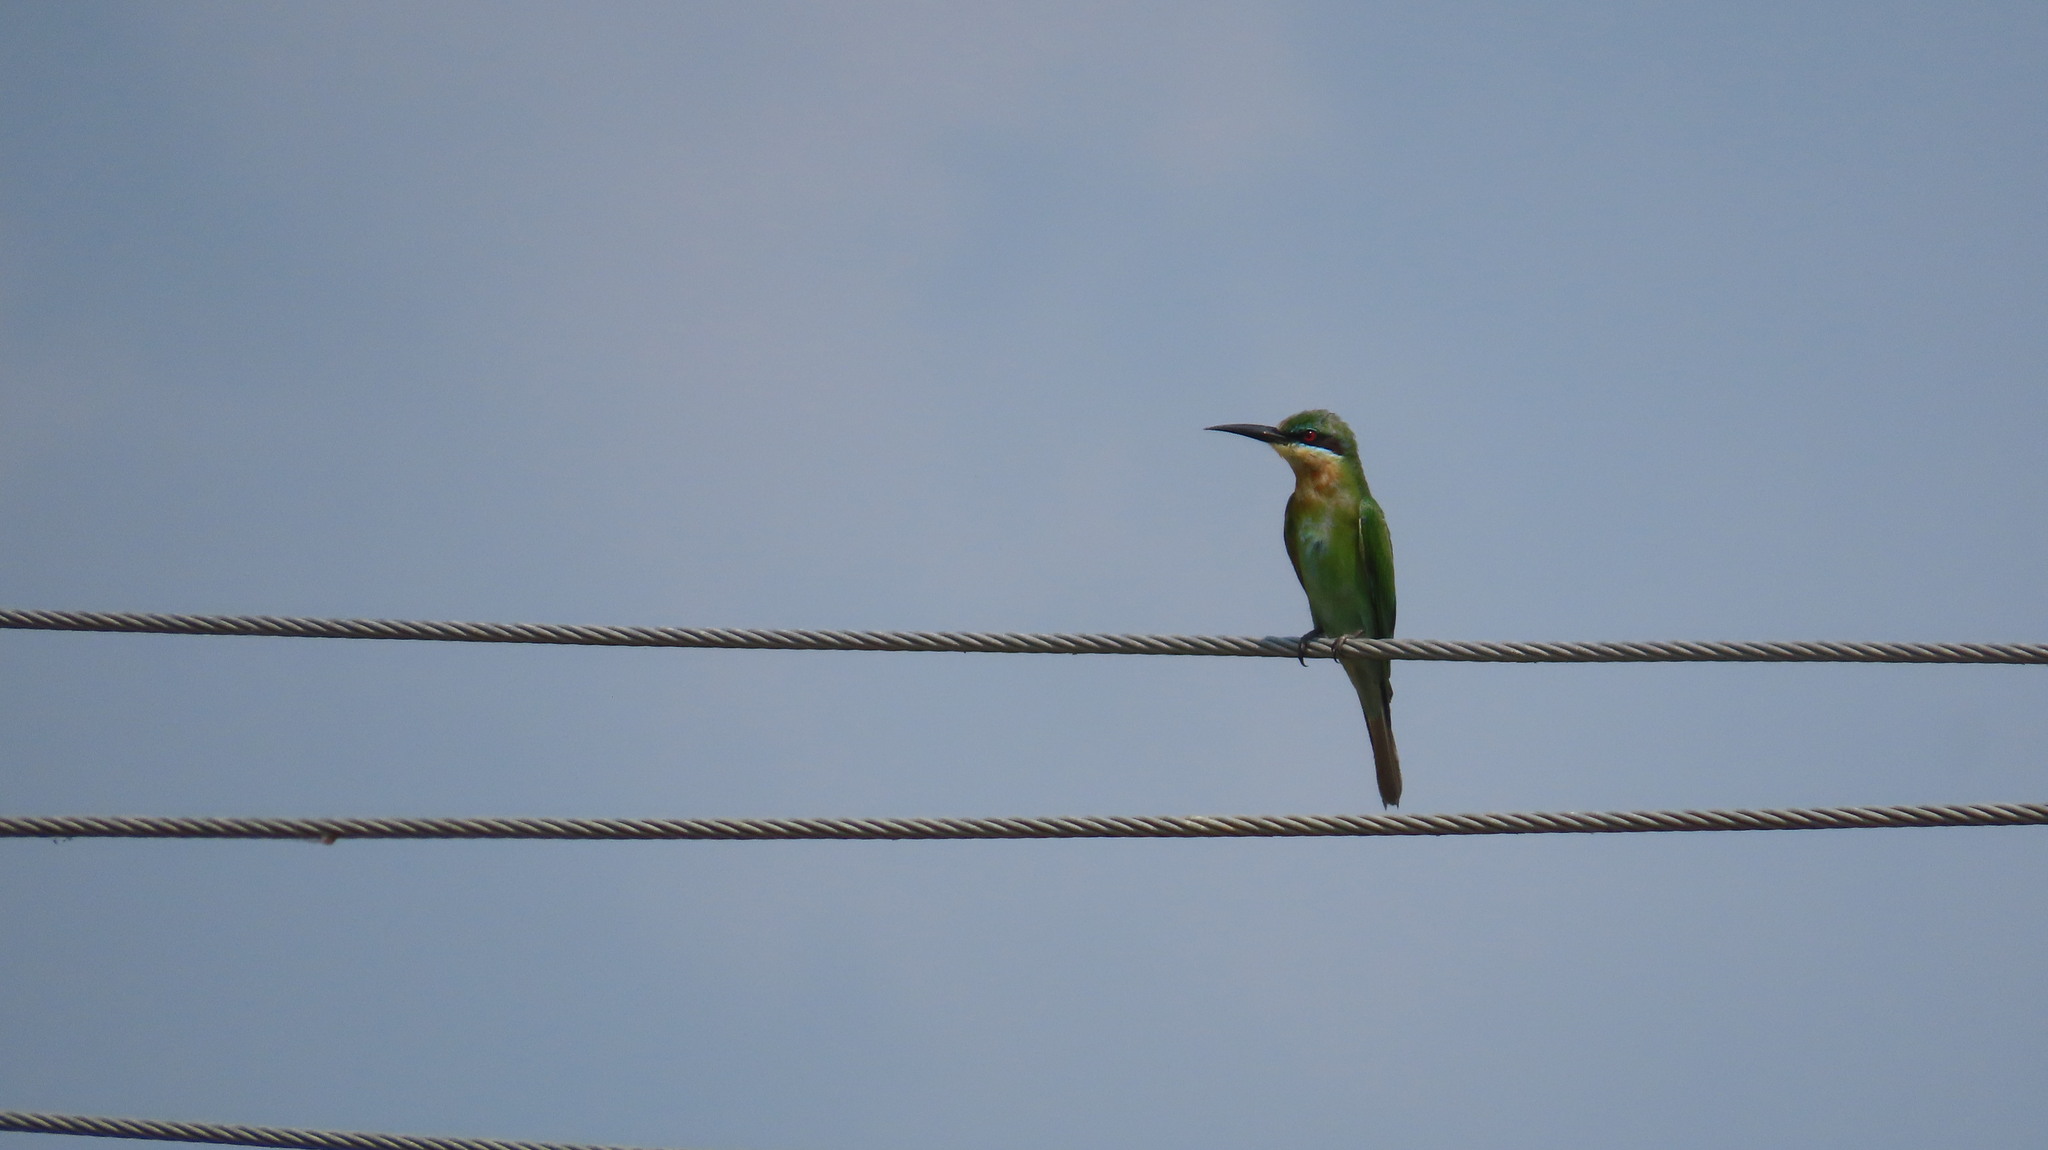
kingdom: Animalia
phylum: Chordata
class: Aves
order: Coraciiformes
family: Meropidae
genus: Merops
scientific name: Merops philippinus
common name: Blue-tailed bee-eater
